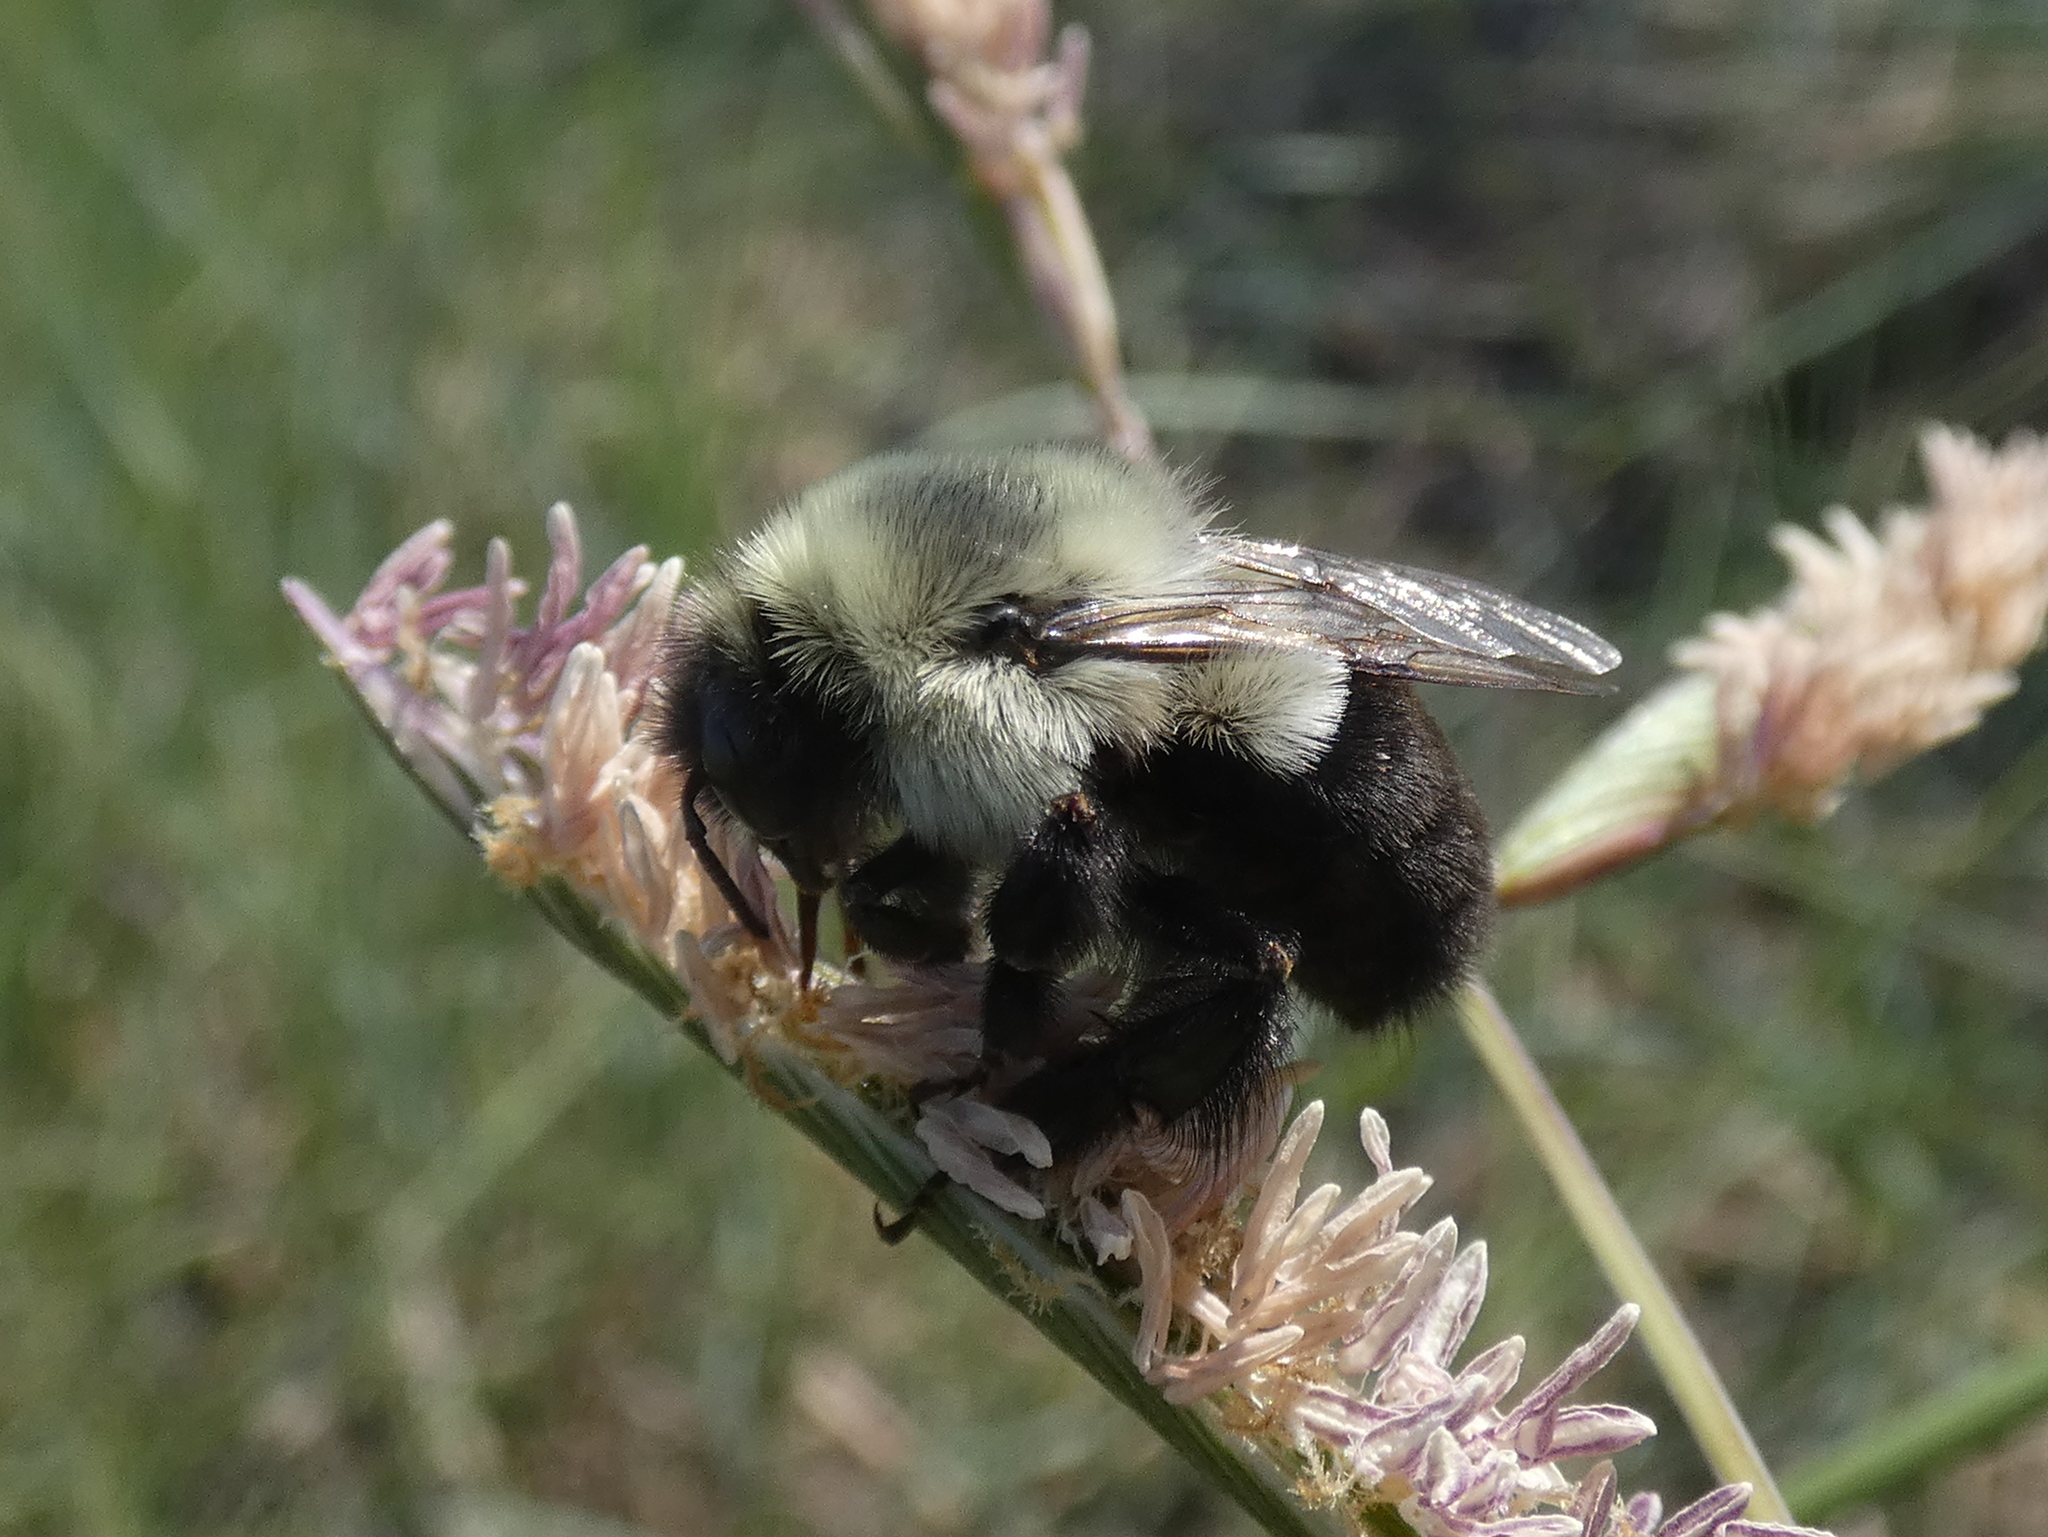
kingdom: Animalia
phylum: Arthropoda
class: Insecta
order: Hymenoptera
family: Apidae
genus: Bombus
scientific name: Bombus impatiens
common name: Common eastern bumble bee
